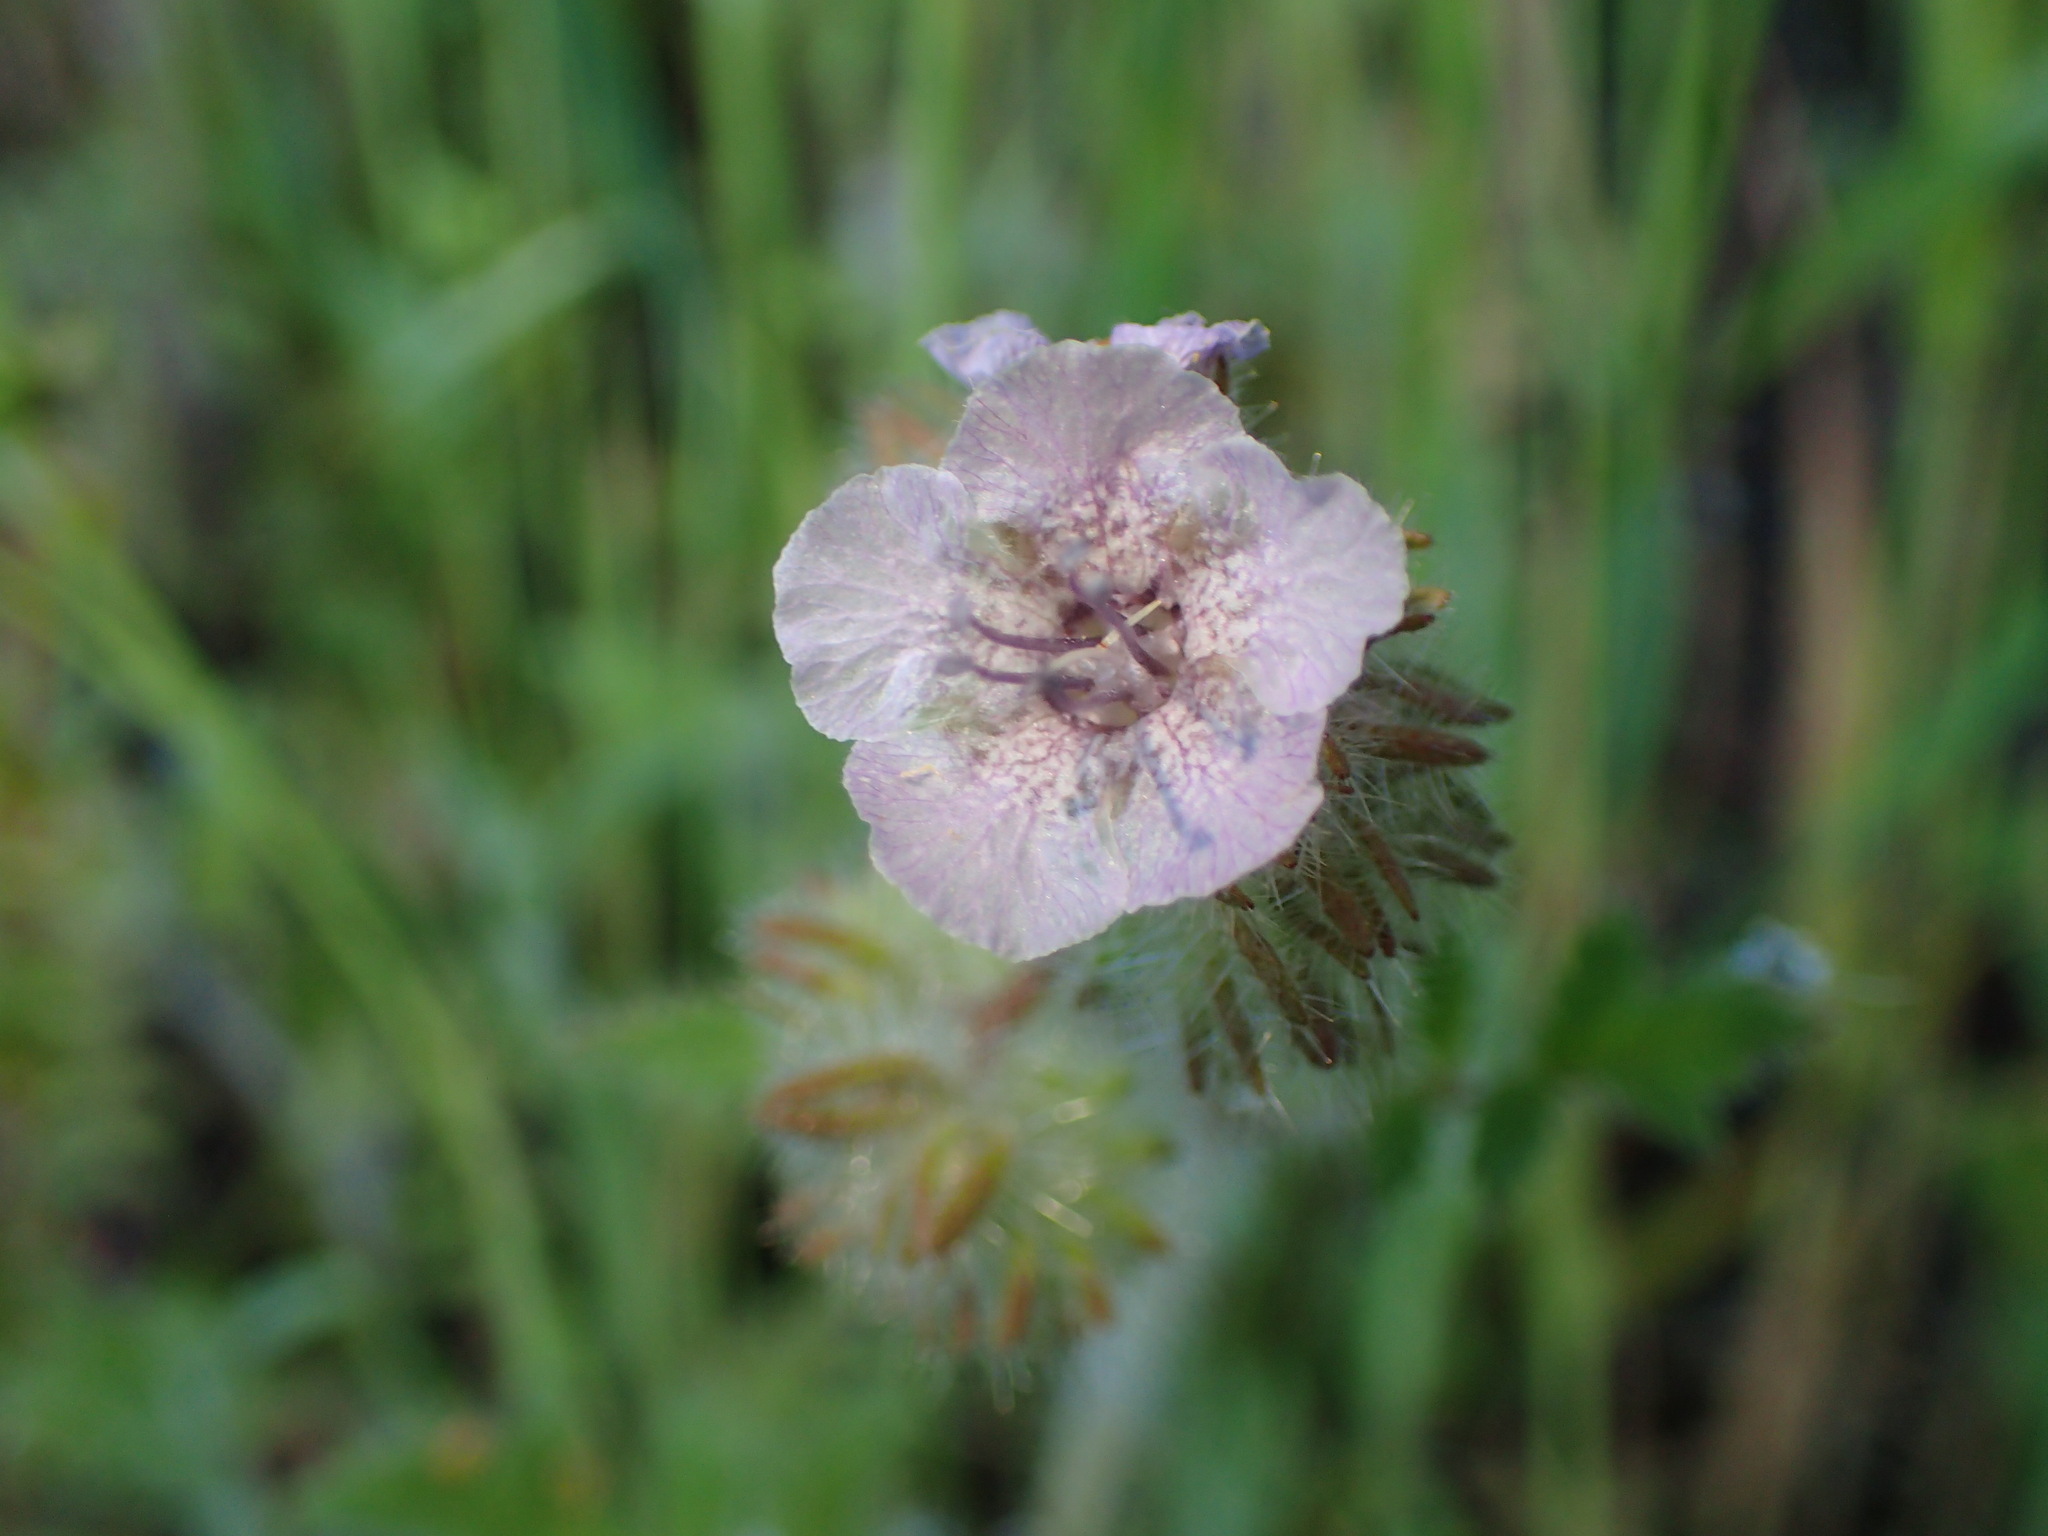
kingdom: Plantae
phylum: Tracheophyta
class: Magnoliopsida
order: Boraginales
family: Hydrophyllaceae
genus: Phacelia
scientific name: Phacelia cicutaria
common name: Caterpillar phacelia
